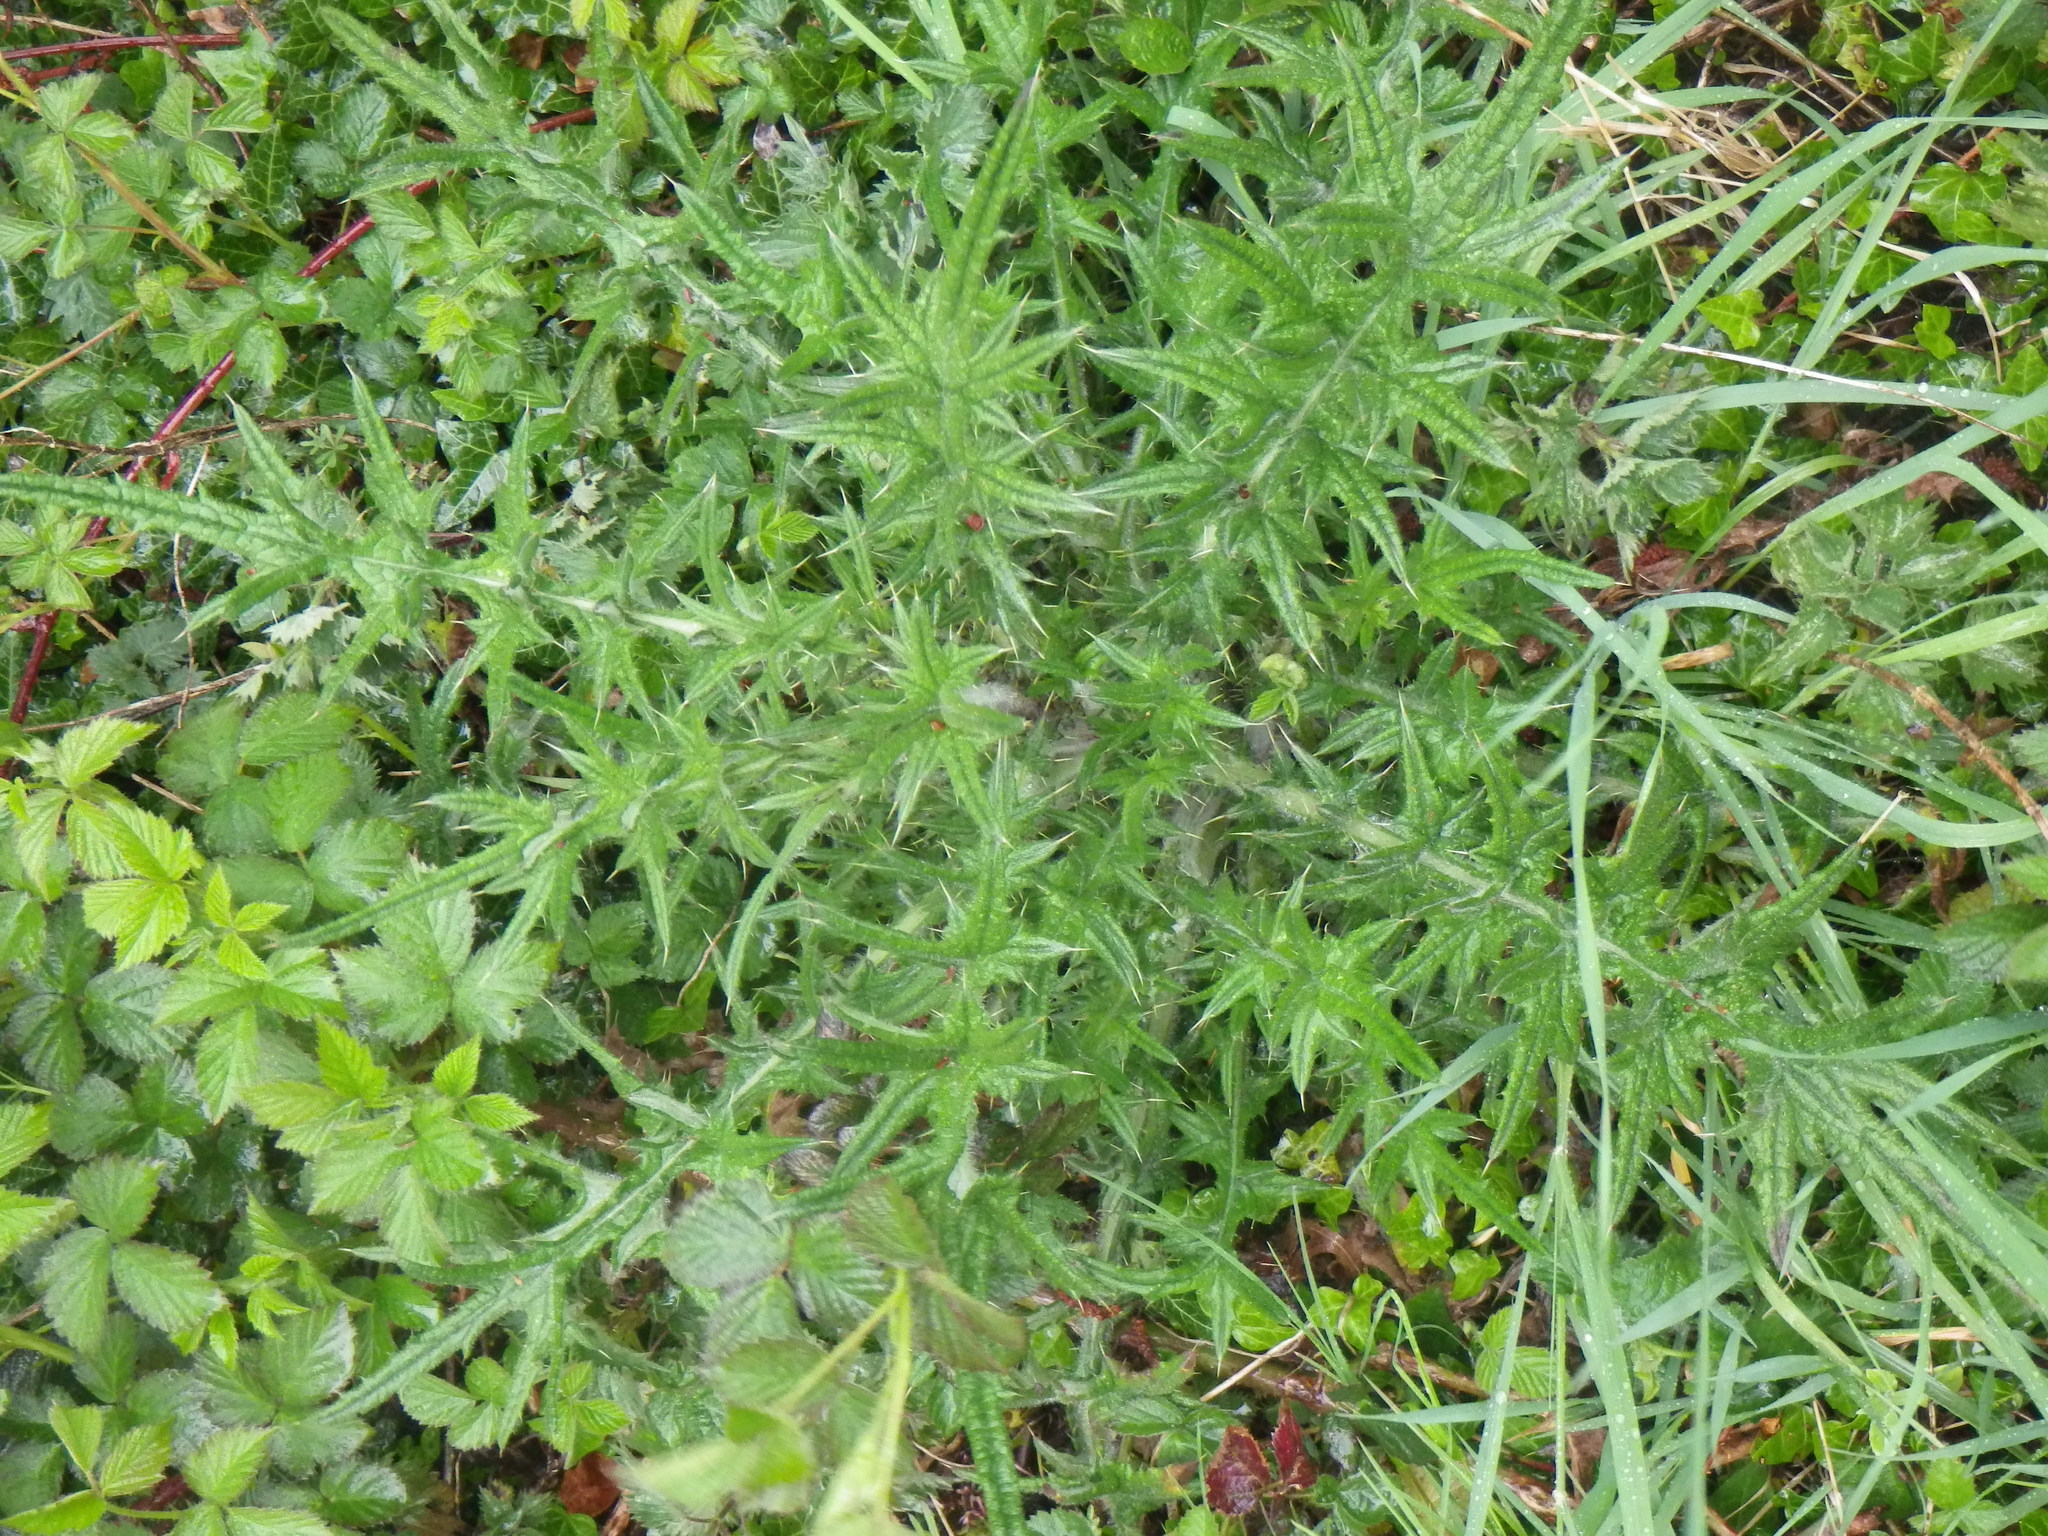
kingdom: Plantae
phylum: Tracheophyta
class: Magnoliopsida
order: Asterales
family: Asteraceae
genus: Cirsium
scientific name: Cirsium vulgare
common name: Bull thistle
